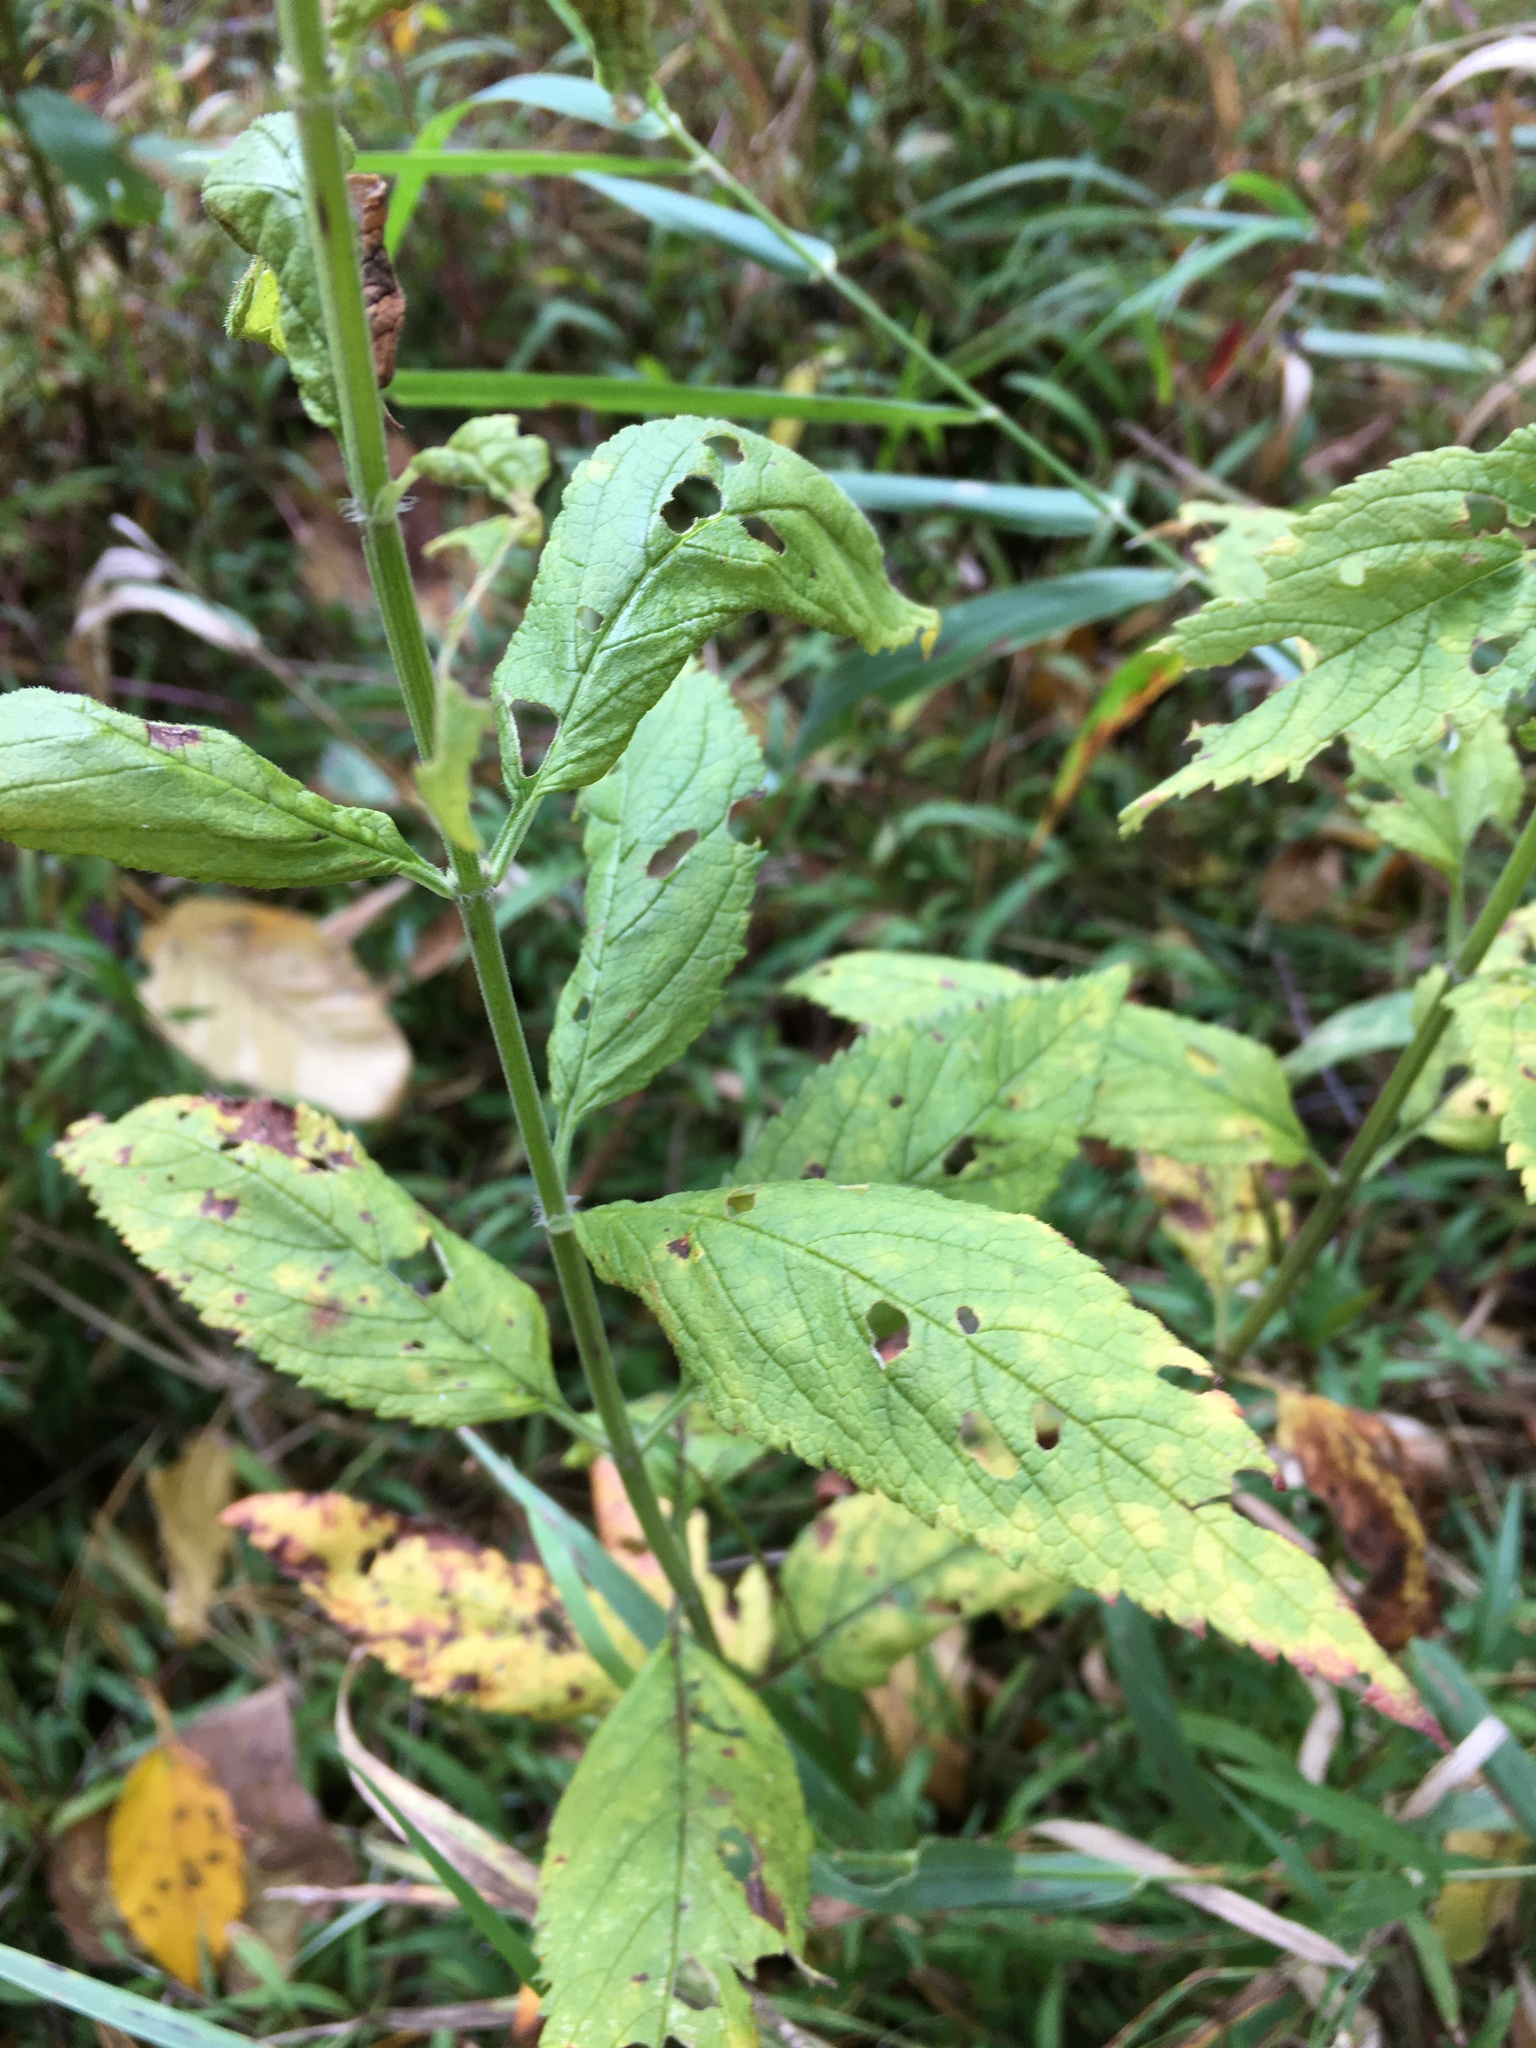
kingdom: Plantae
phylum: Tracheophyta
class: Magnoliopsida
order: Lamiales
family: Lamiaceae
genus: Teucrium
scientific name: Teucrium canadense
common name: American germander
